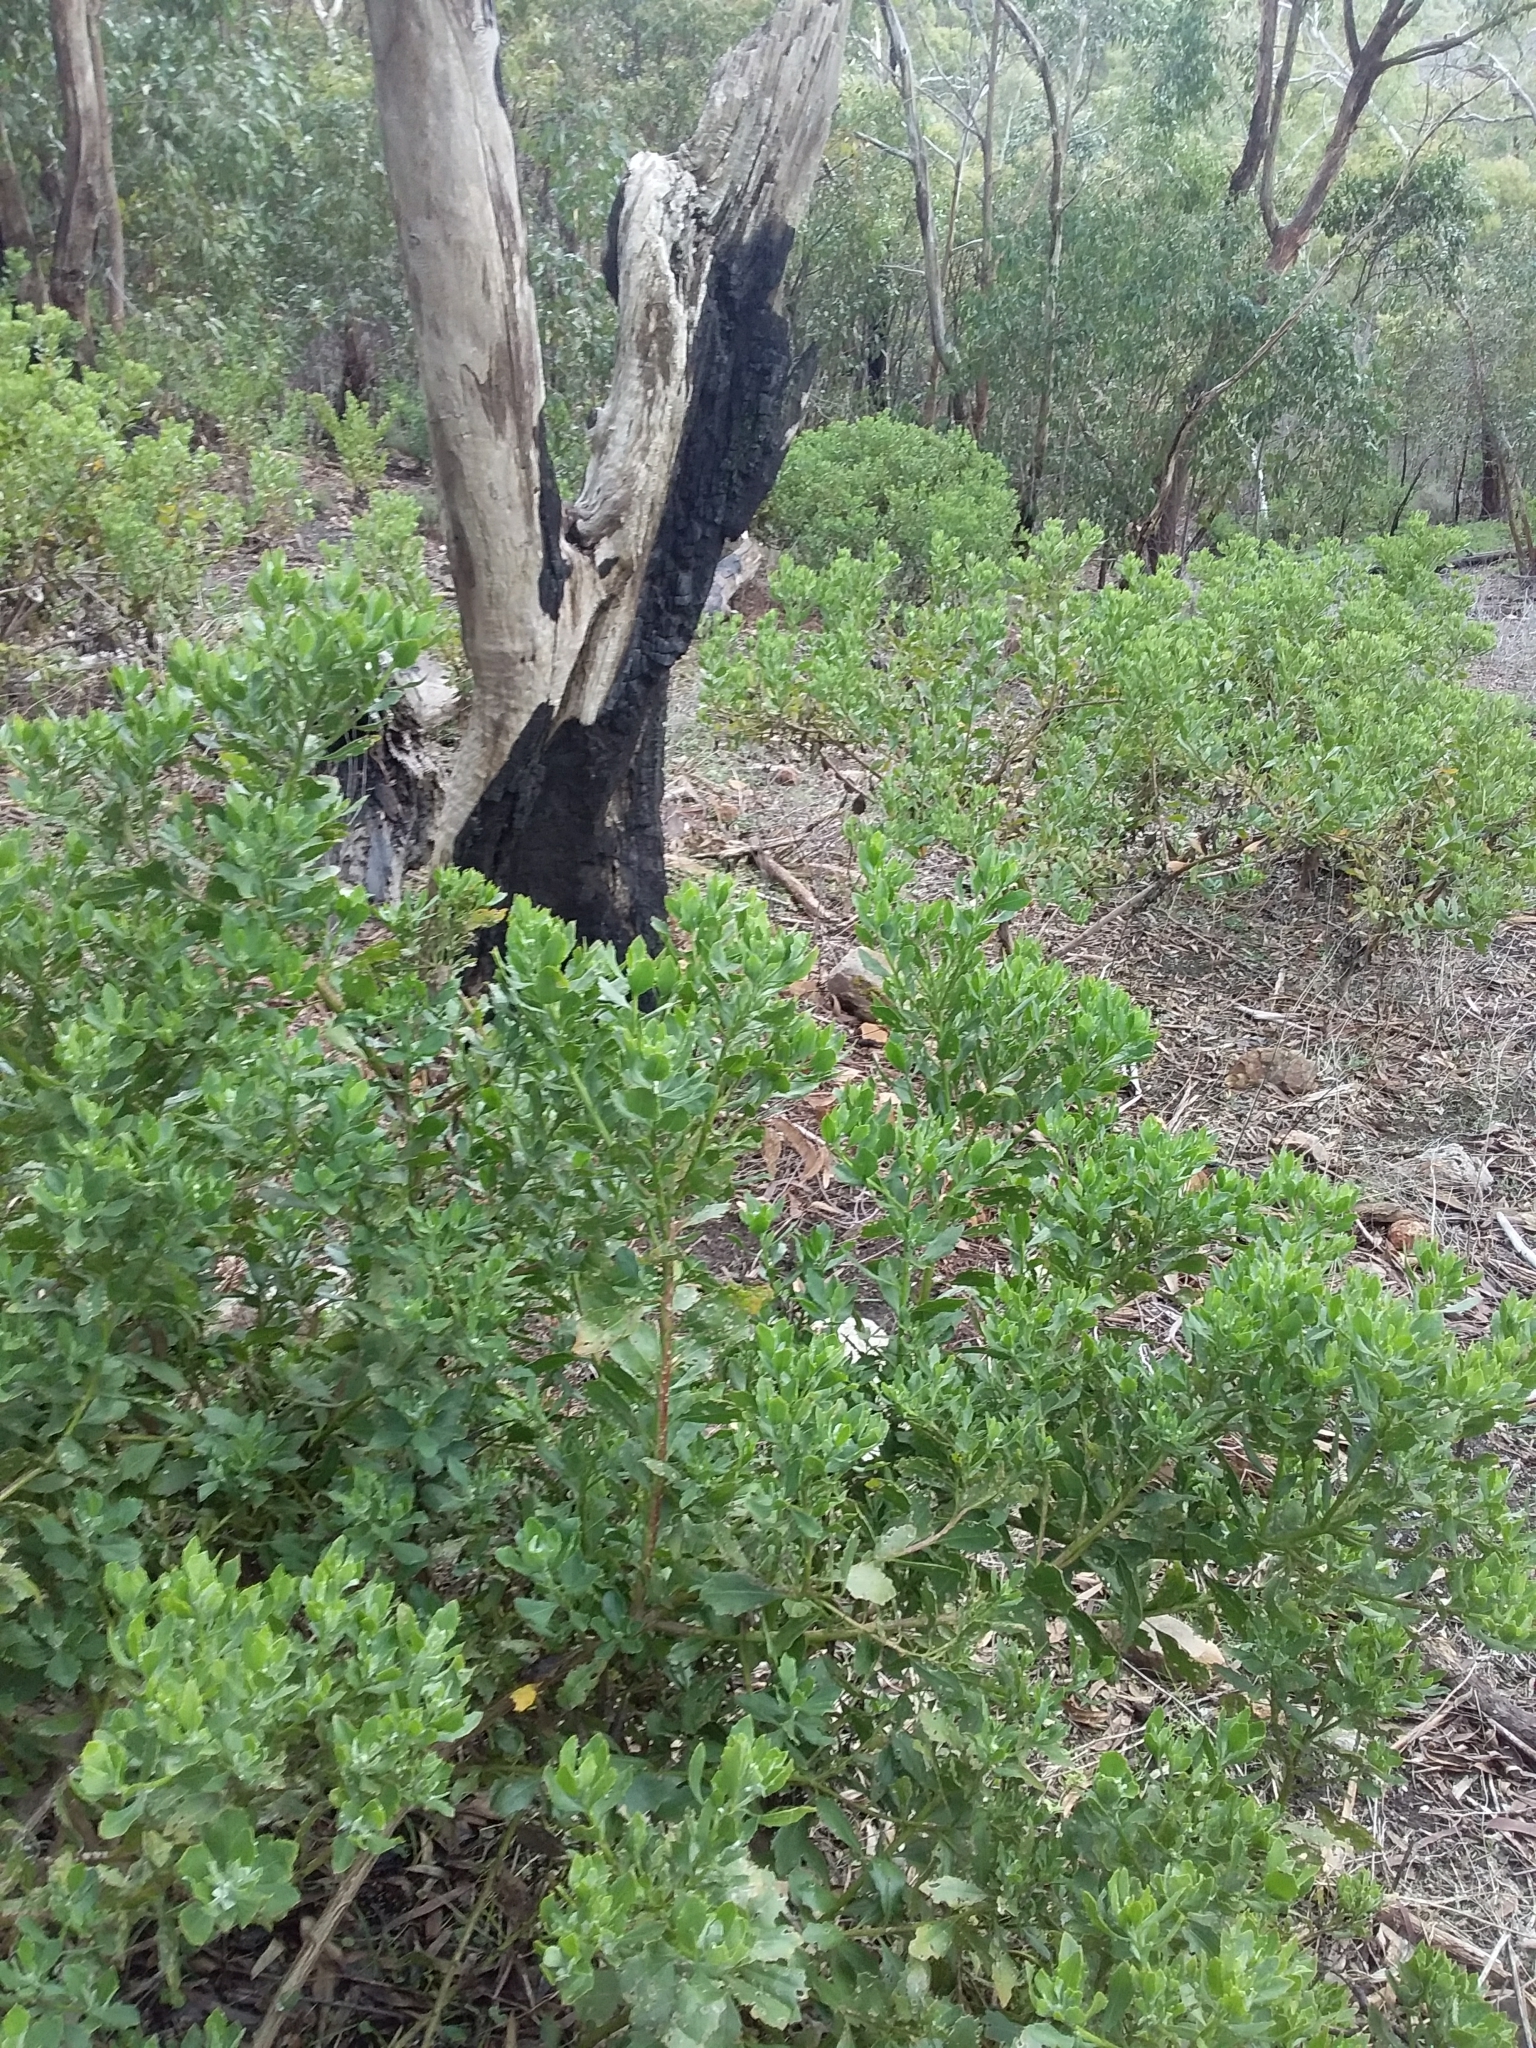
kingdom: Plantae
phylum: Tracheophyta
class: Magnoliopsida
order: Asterales
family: Asteraceae
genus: Osteospermum
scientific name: Osteospermum moniliferum
